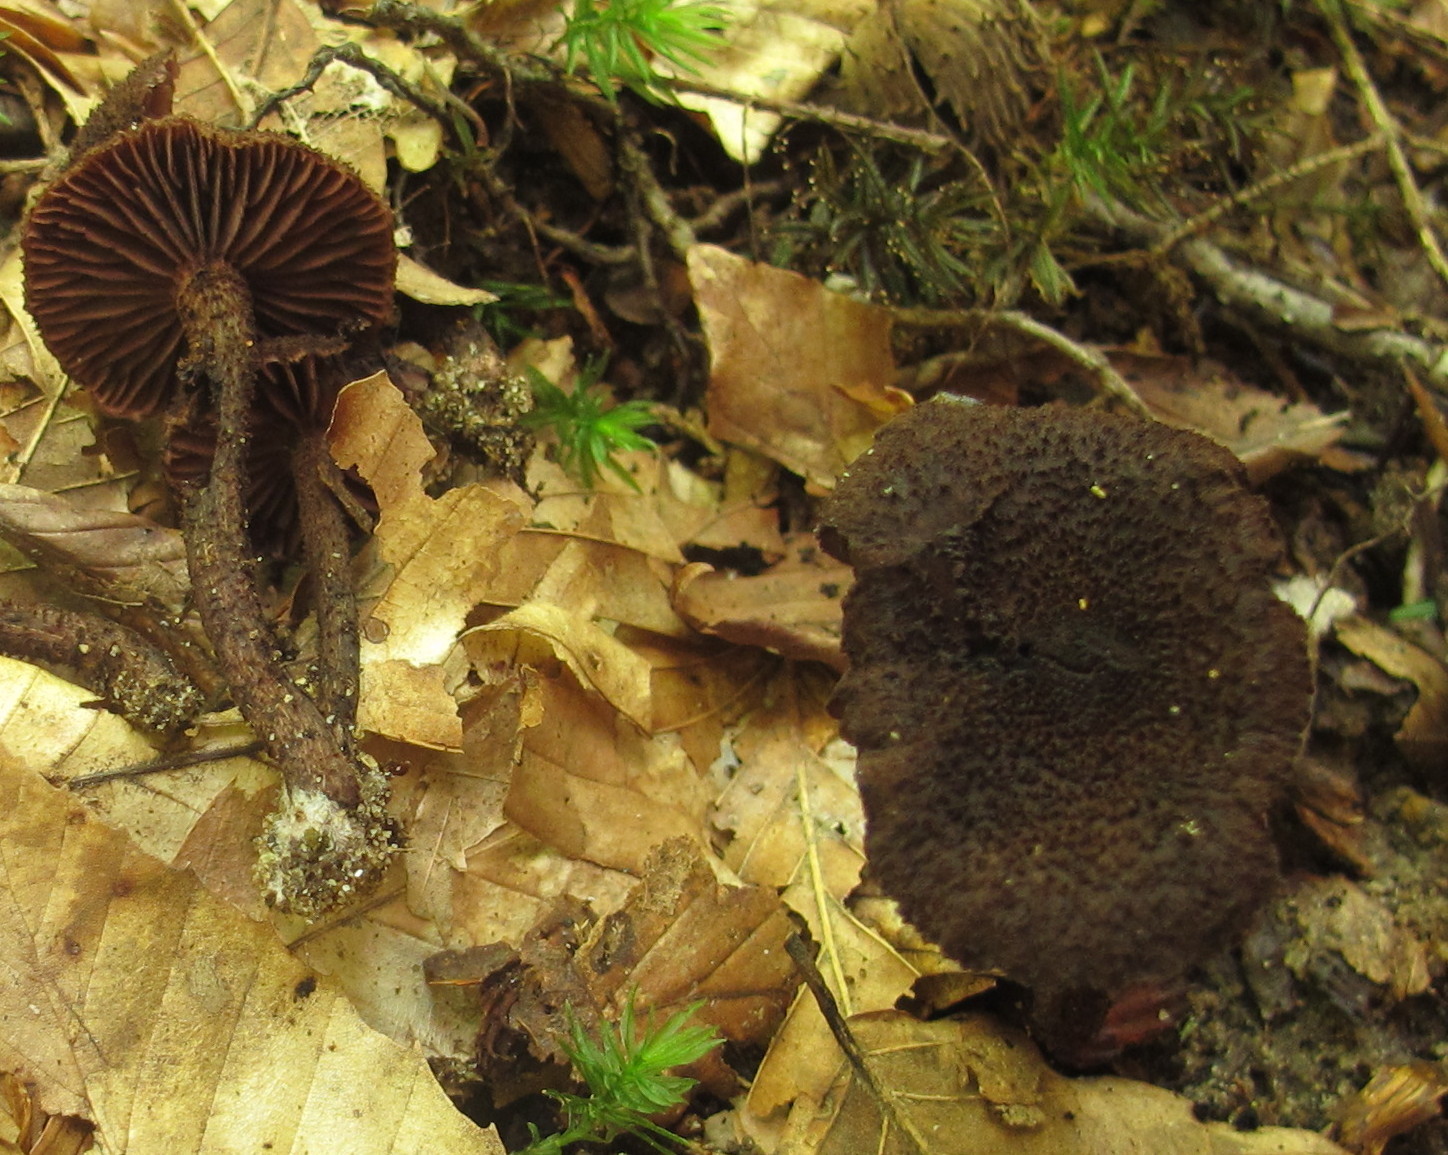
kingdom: Fungi
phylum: Basidiomycota
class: Agaricomycetes
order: Agaricales
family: Inocybaceae
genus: Inocybe
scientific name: Inocybe tahquamenonensis
